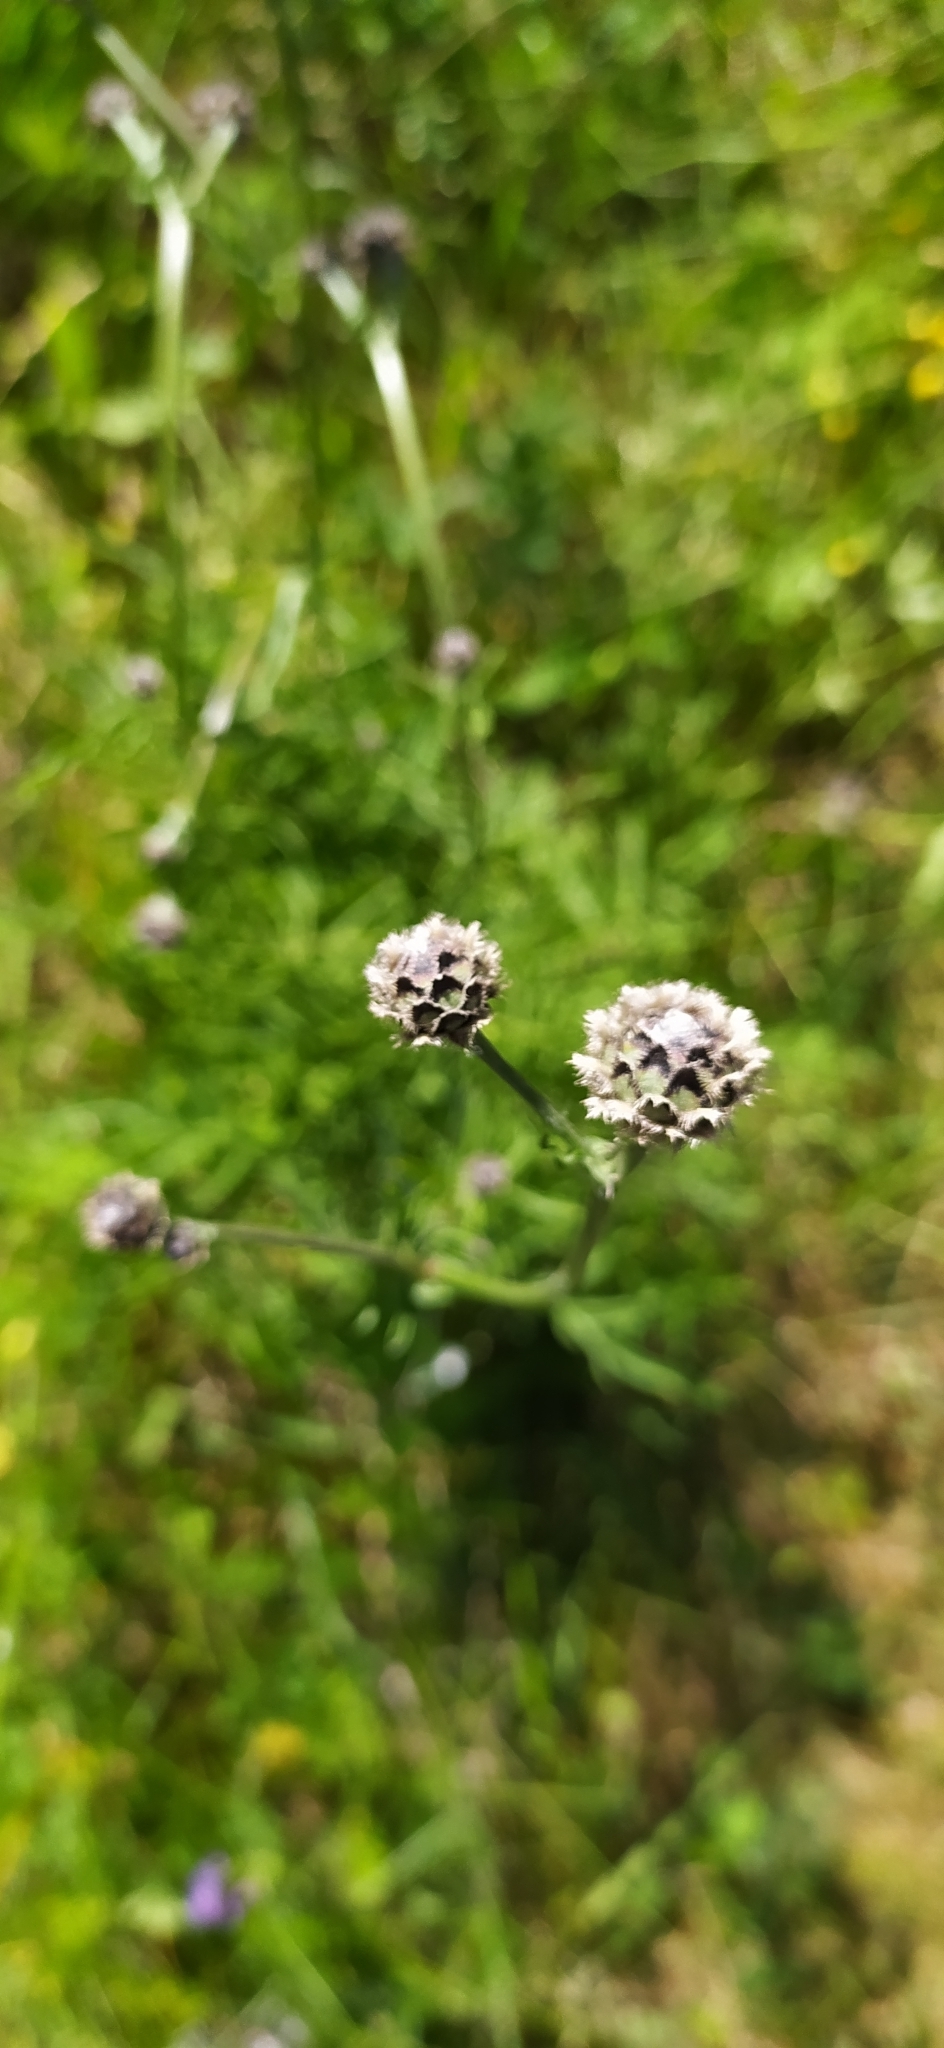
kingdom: Plantae
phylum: Tracheophyta
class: Magnoliopsida
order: Asterales
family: Asteraceae
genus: Centaurea
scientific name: Centaurea scabiosa
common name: Greater knapweed
